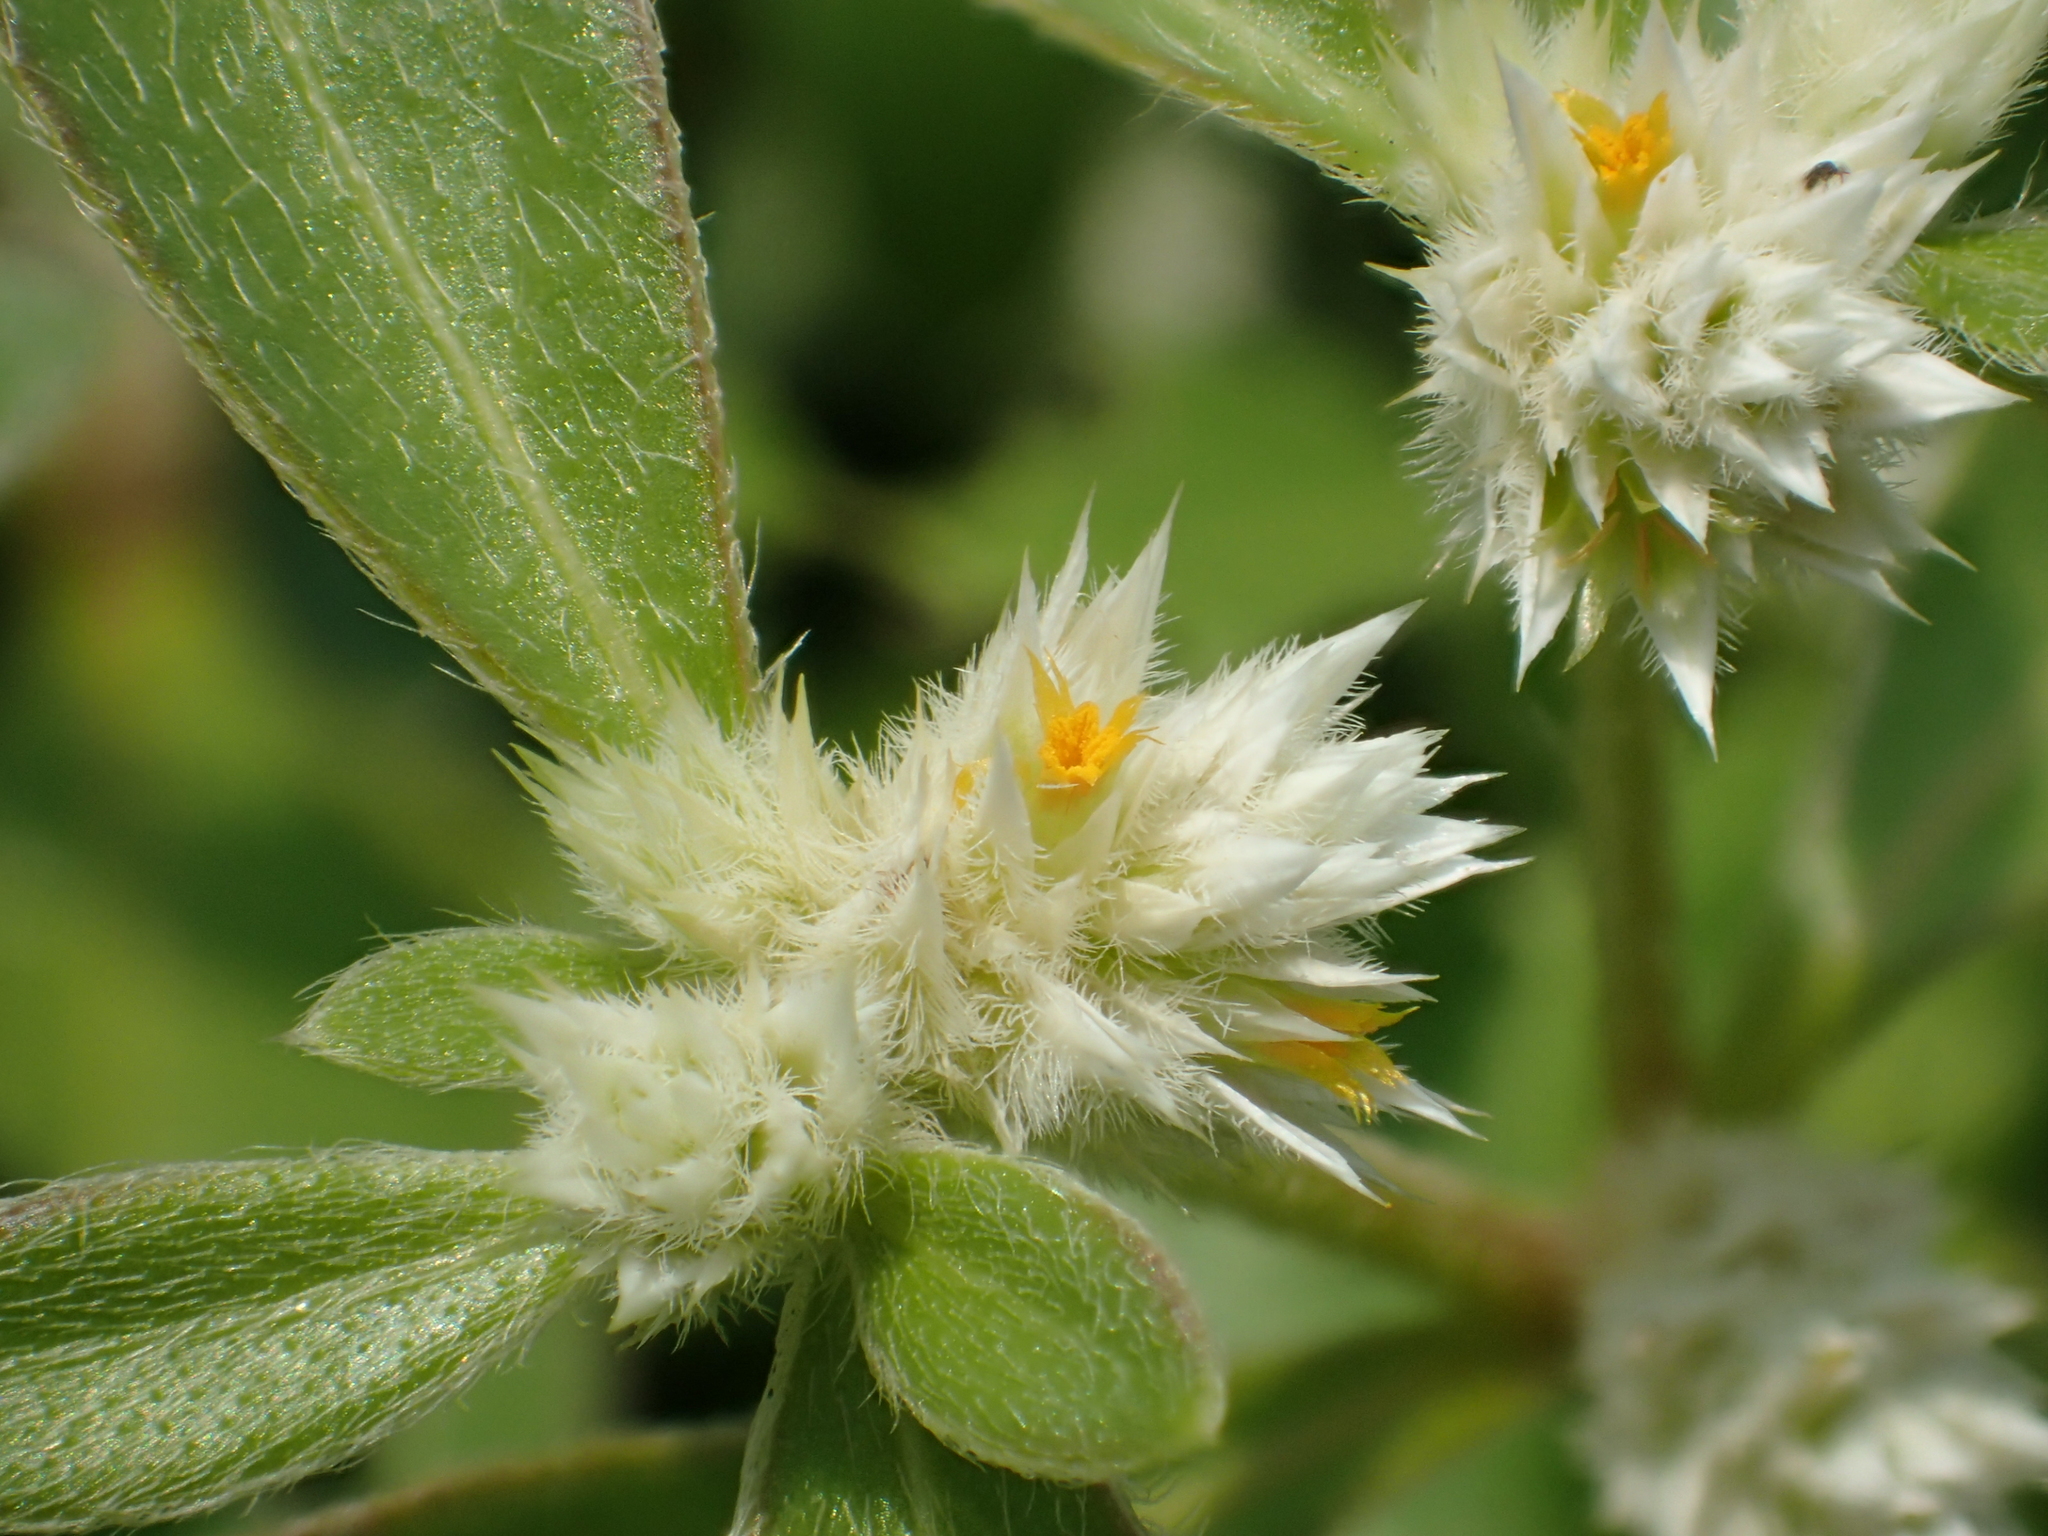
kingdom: Plantae
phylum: Tracheophyta
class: Magnoliopsida
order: Caryophyllales
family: Amaranthaceae
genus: Alternanthera
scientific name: Alternanthera bettzickiana
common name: Calico-plant
